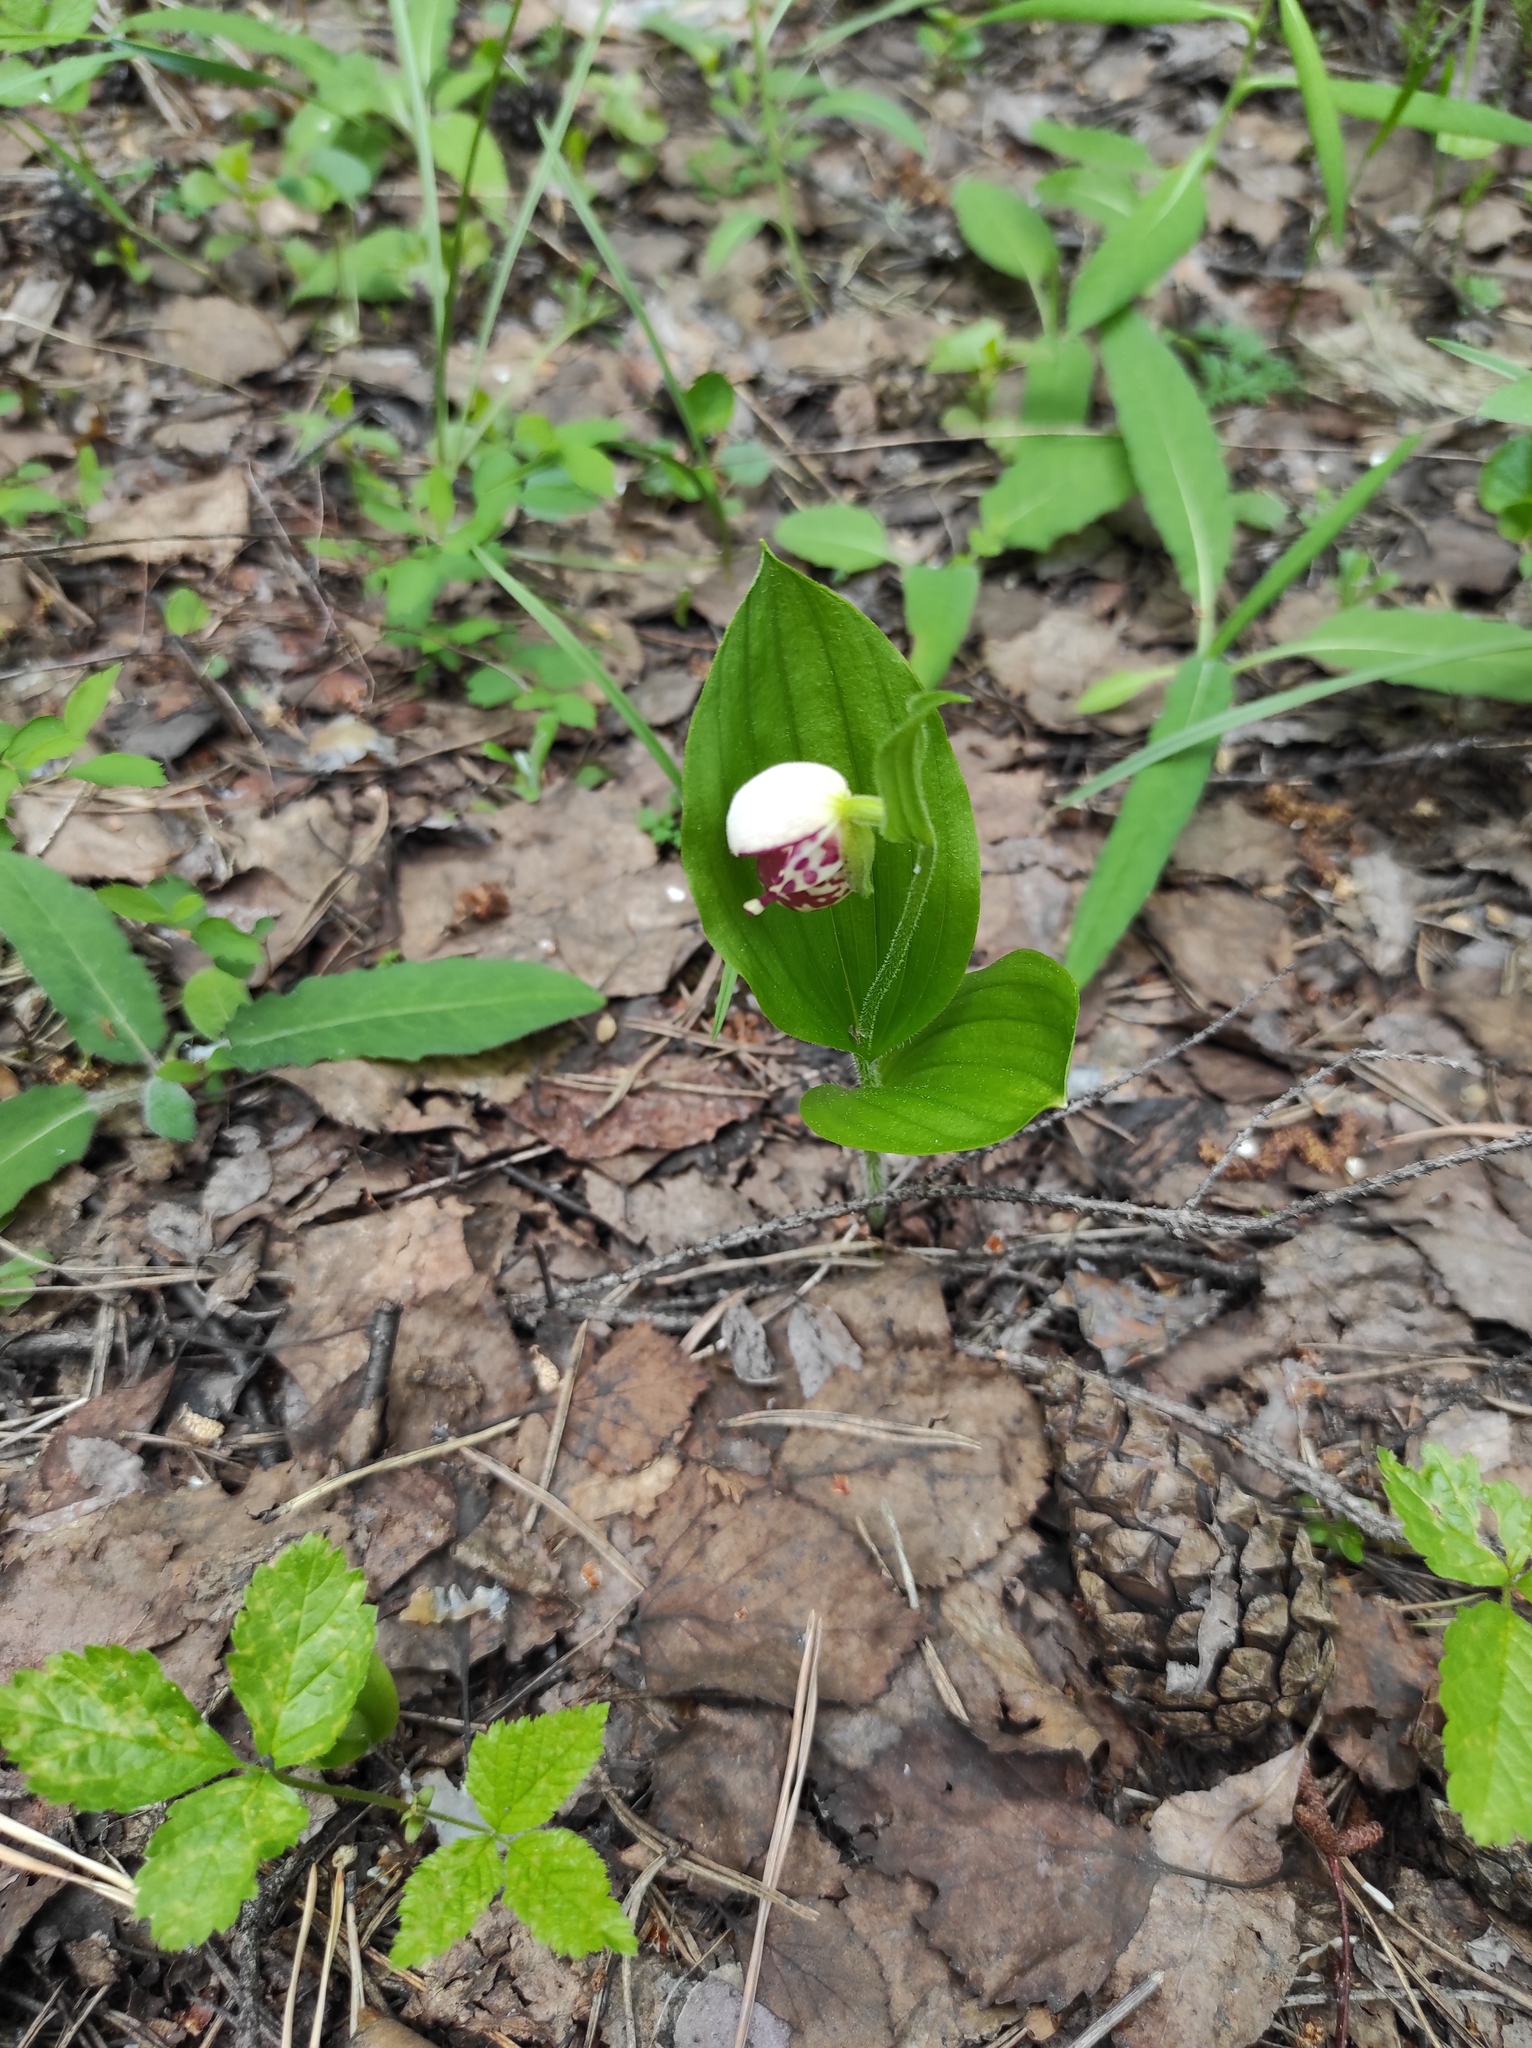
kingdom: Plantae
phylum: Tracheophyta
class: Liliopsida
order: Asparagales
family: Orchidaceae
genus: Cypripedium
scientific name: Cypripedium guttatum
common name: Pink lady slipper
